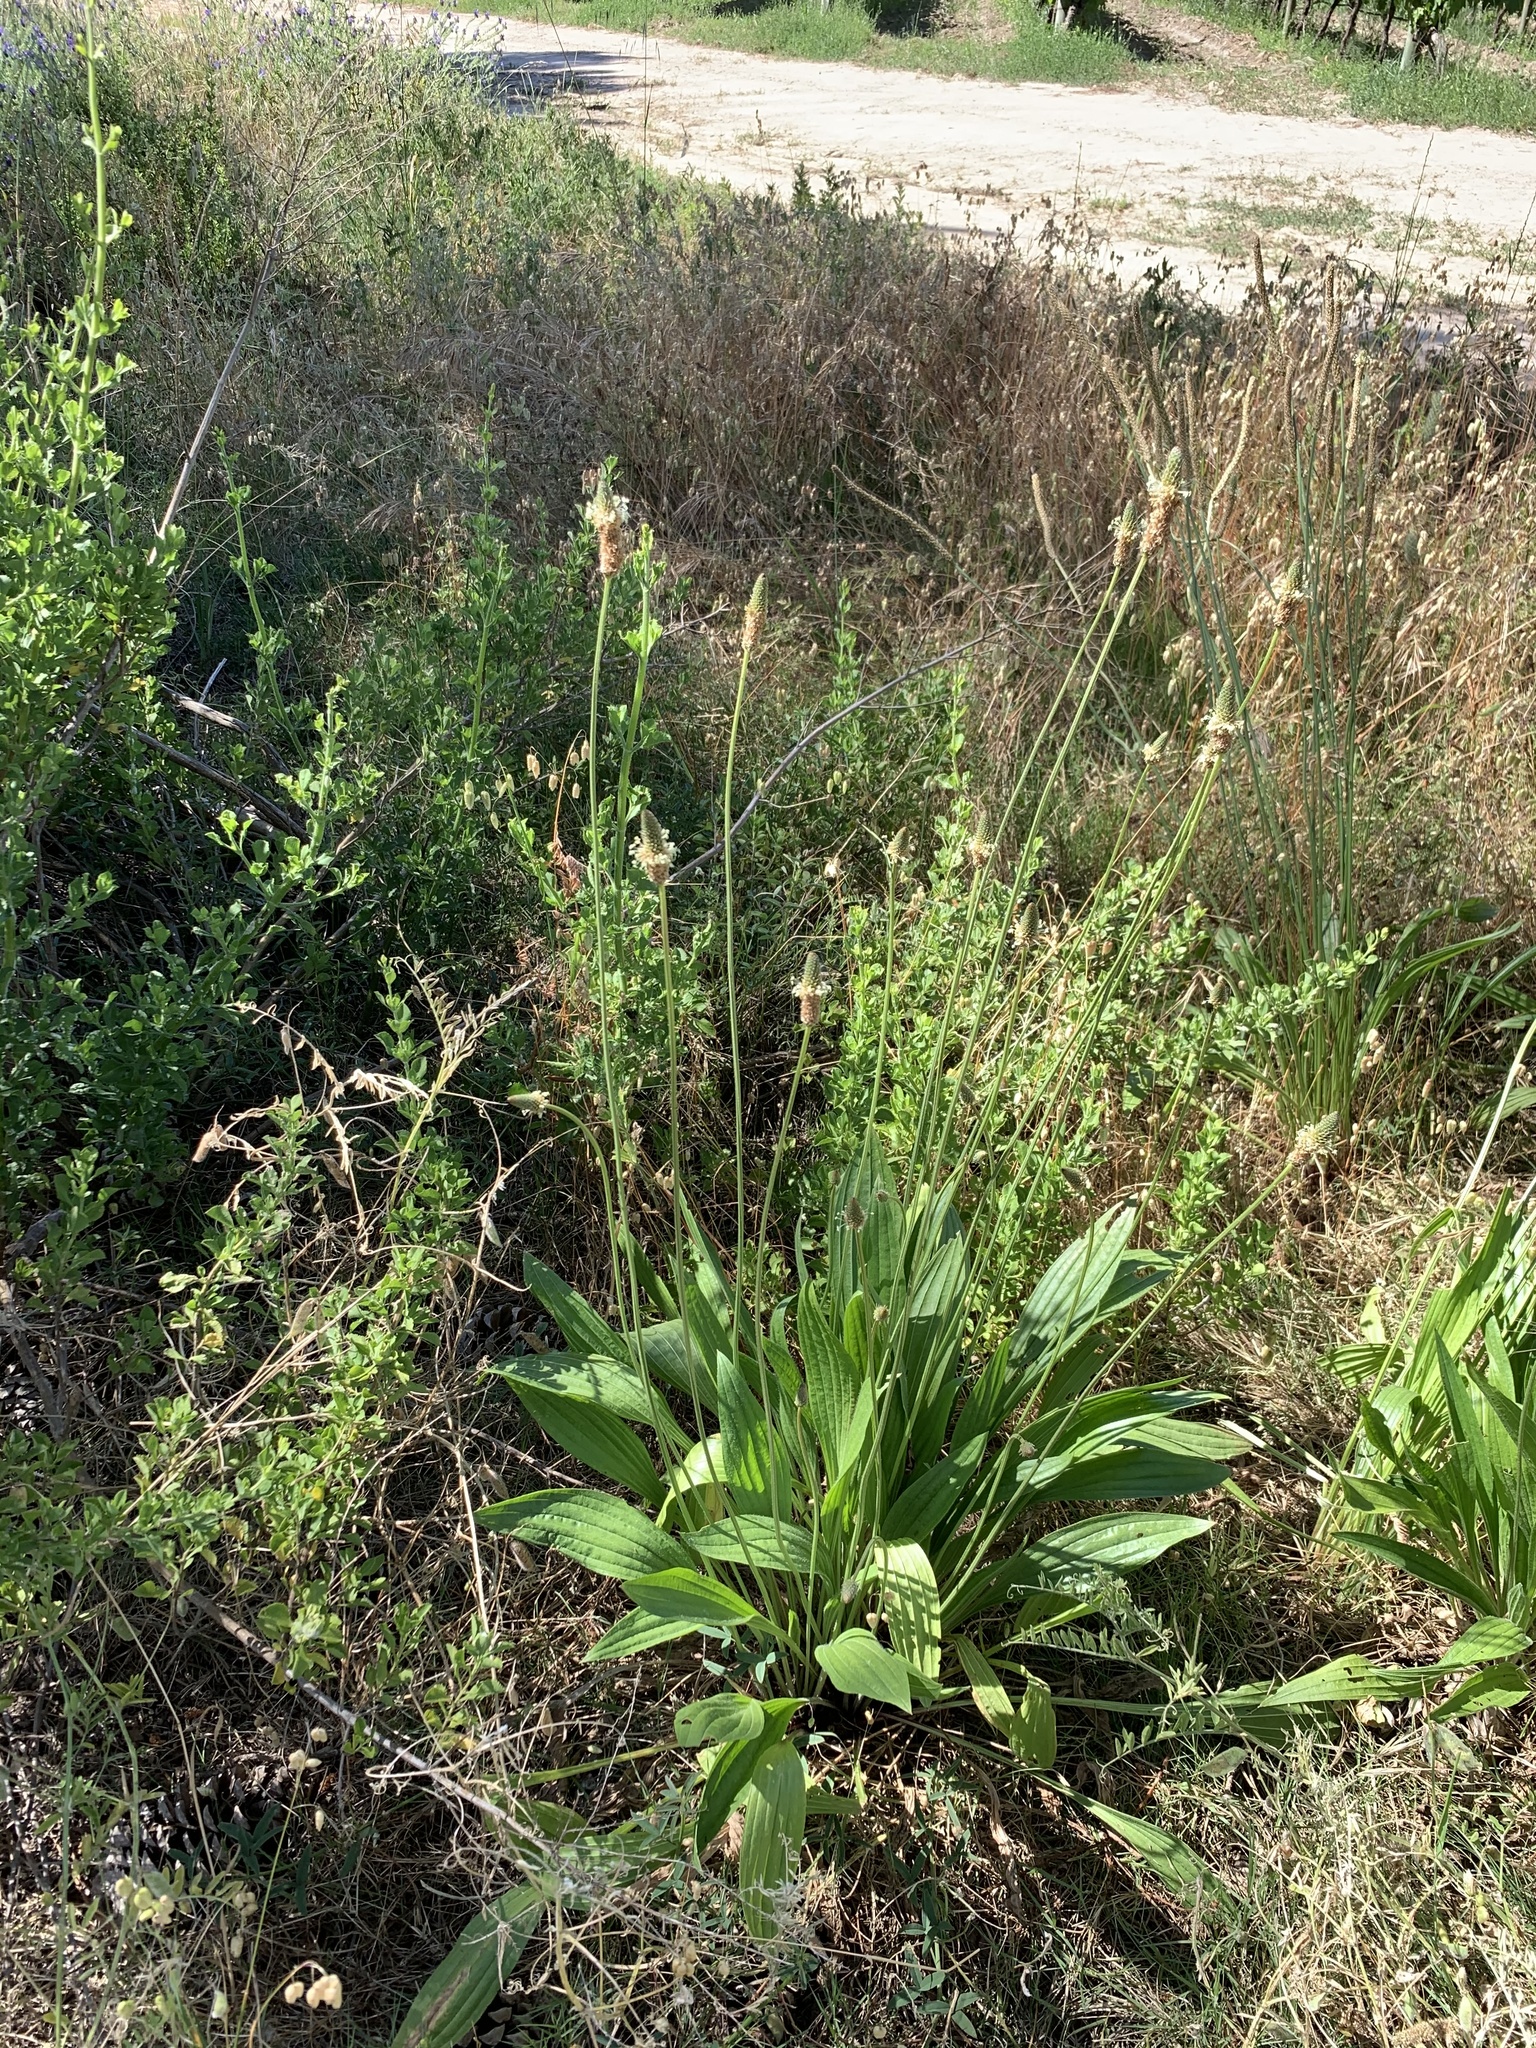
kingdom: Plantae
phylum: Tracheophyta
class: Magnoliopsida
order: Lamiales
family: Plantaginaceae
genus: Plantago
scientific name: Plantago lanceolata
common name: Ribwort plantain
